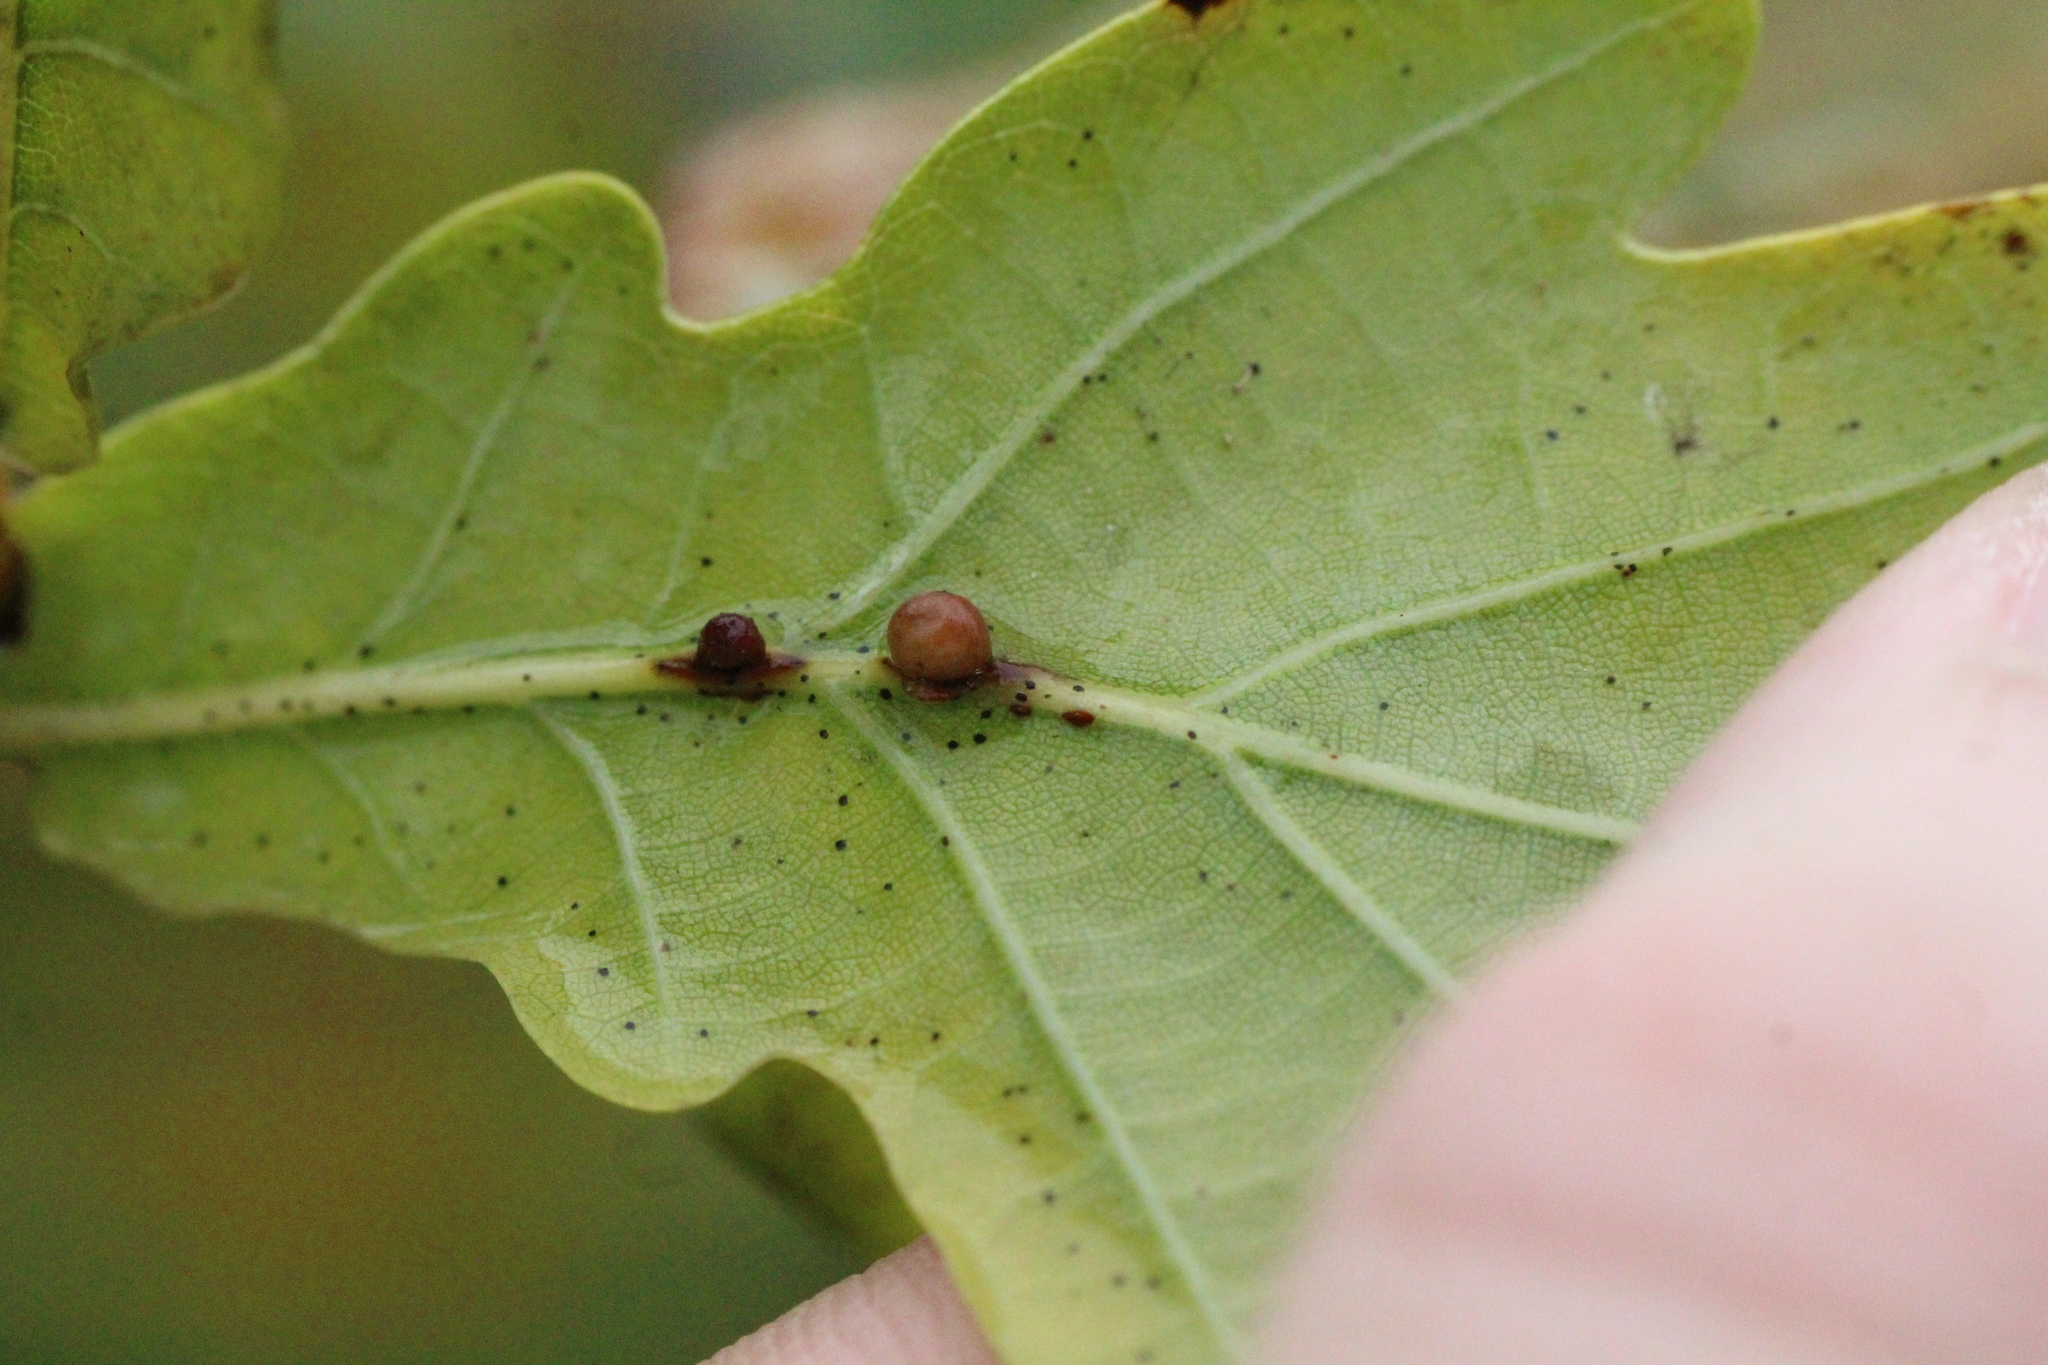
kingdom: Animalia
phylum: Arthropoda
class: Insecta
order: Hymenoptera
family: Cynipidae
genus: Neuroterus
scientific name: Neuroterus anthracinus
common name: Oyster gall
